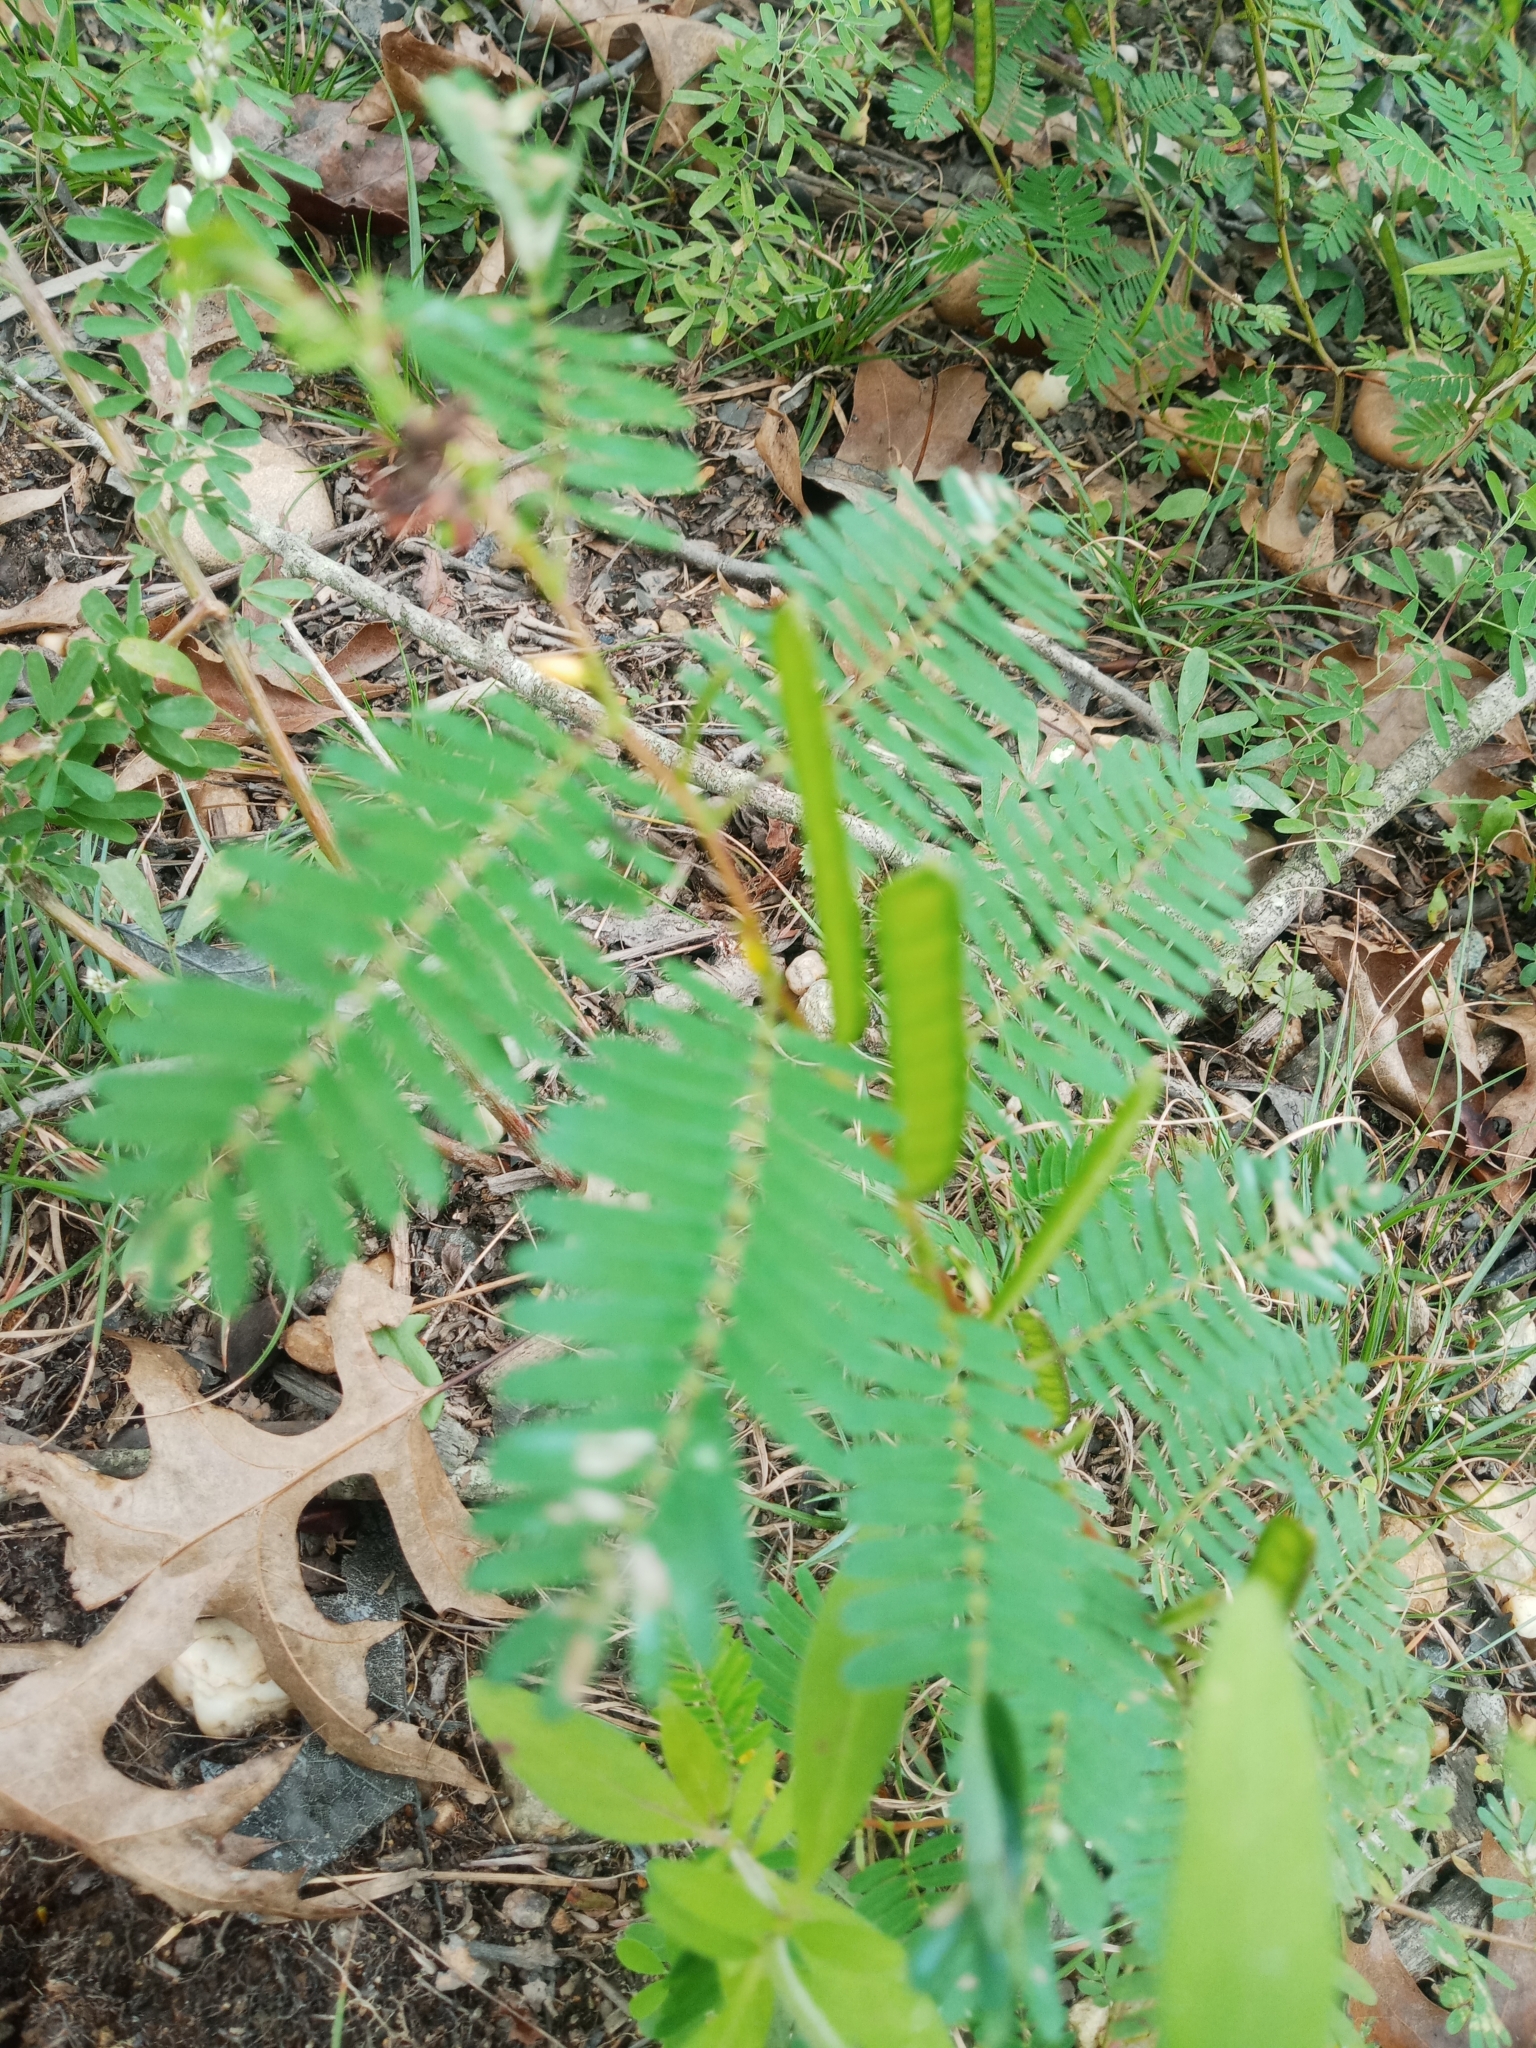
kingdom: Plantae
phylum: Tracheophyta
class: Magnoliopsida
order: Fabales
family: Fabaceae
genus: Chamaecrista
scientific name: Chamaecrista fasciculata
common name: Golden cassia
